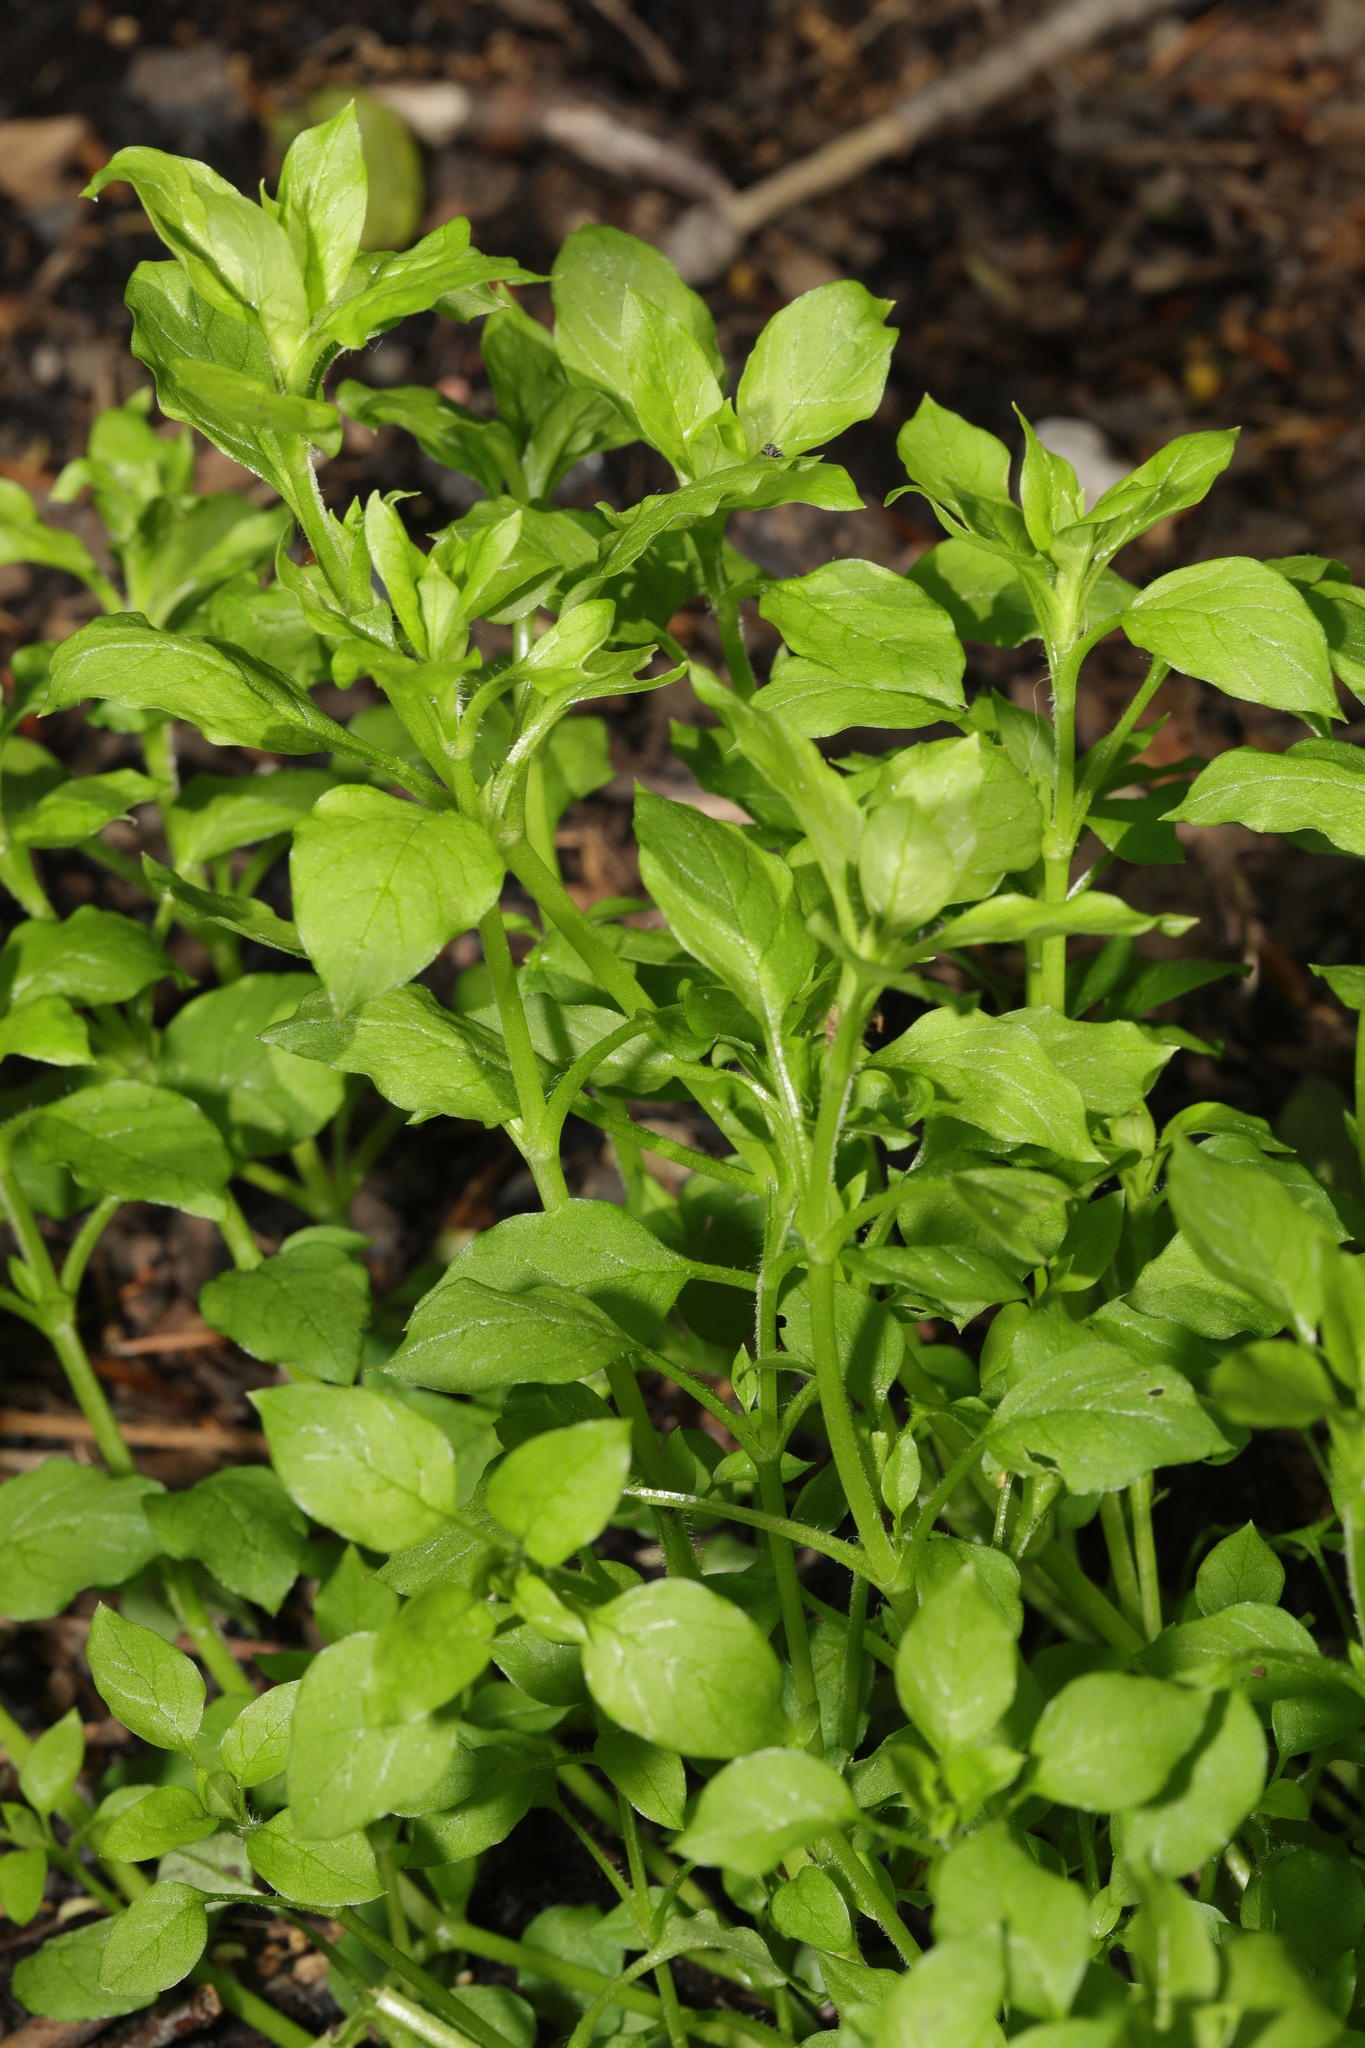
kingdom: Plantae
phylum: Tracheophyta
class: Magnoliopsida
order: Caryophyllales
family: Caryophyllaceae
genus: Stellaria
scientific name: Stellaria media
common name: Common chickweed
